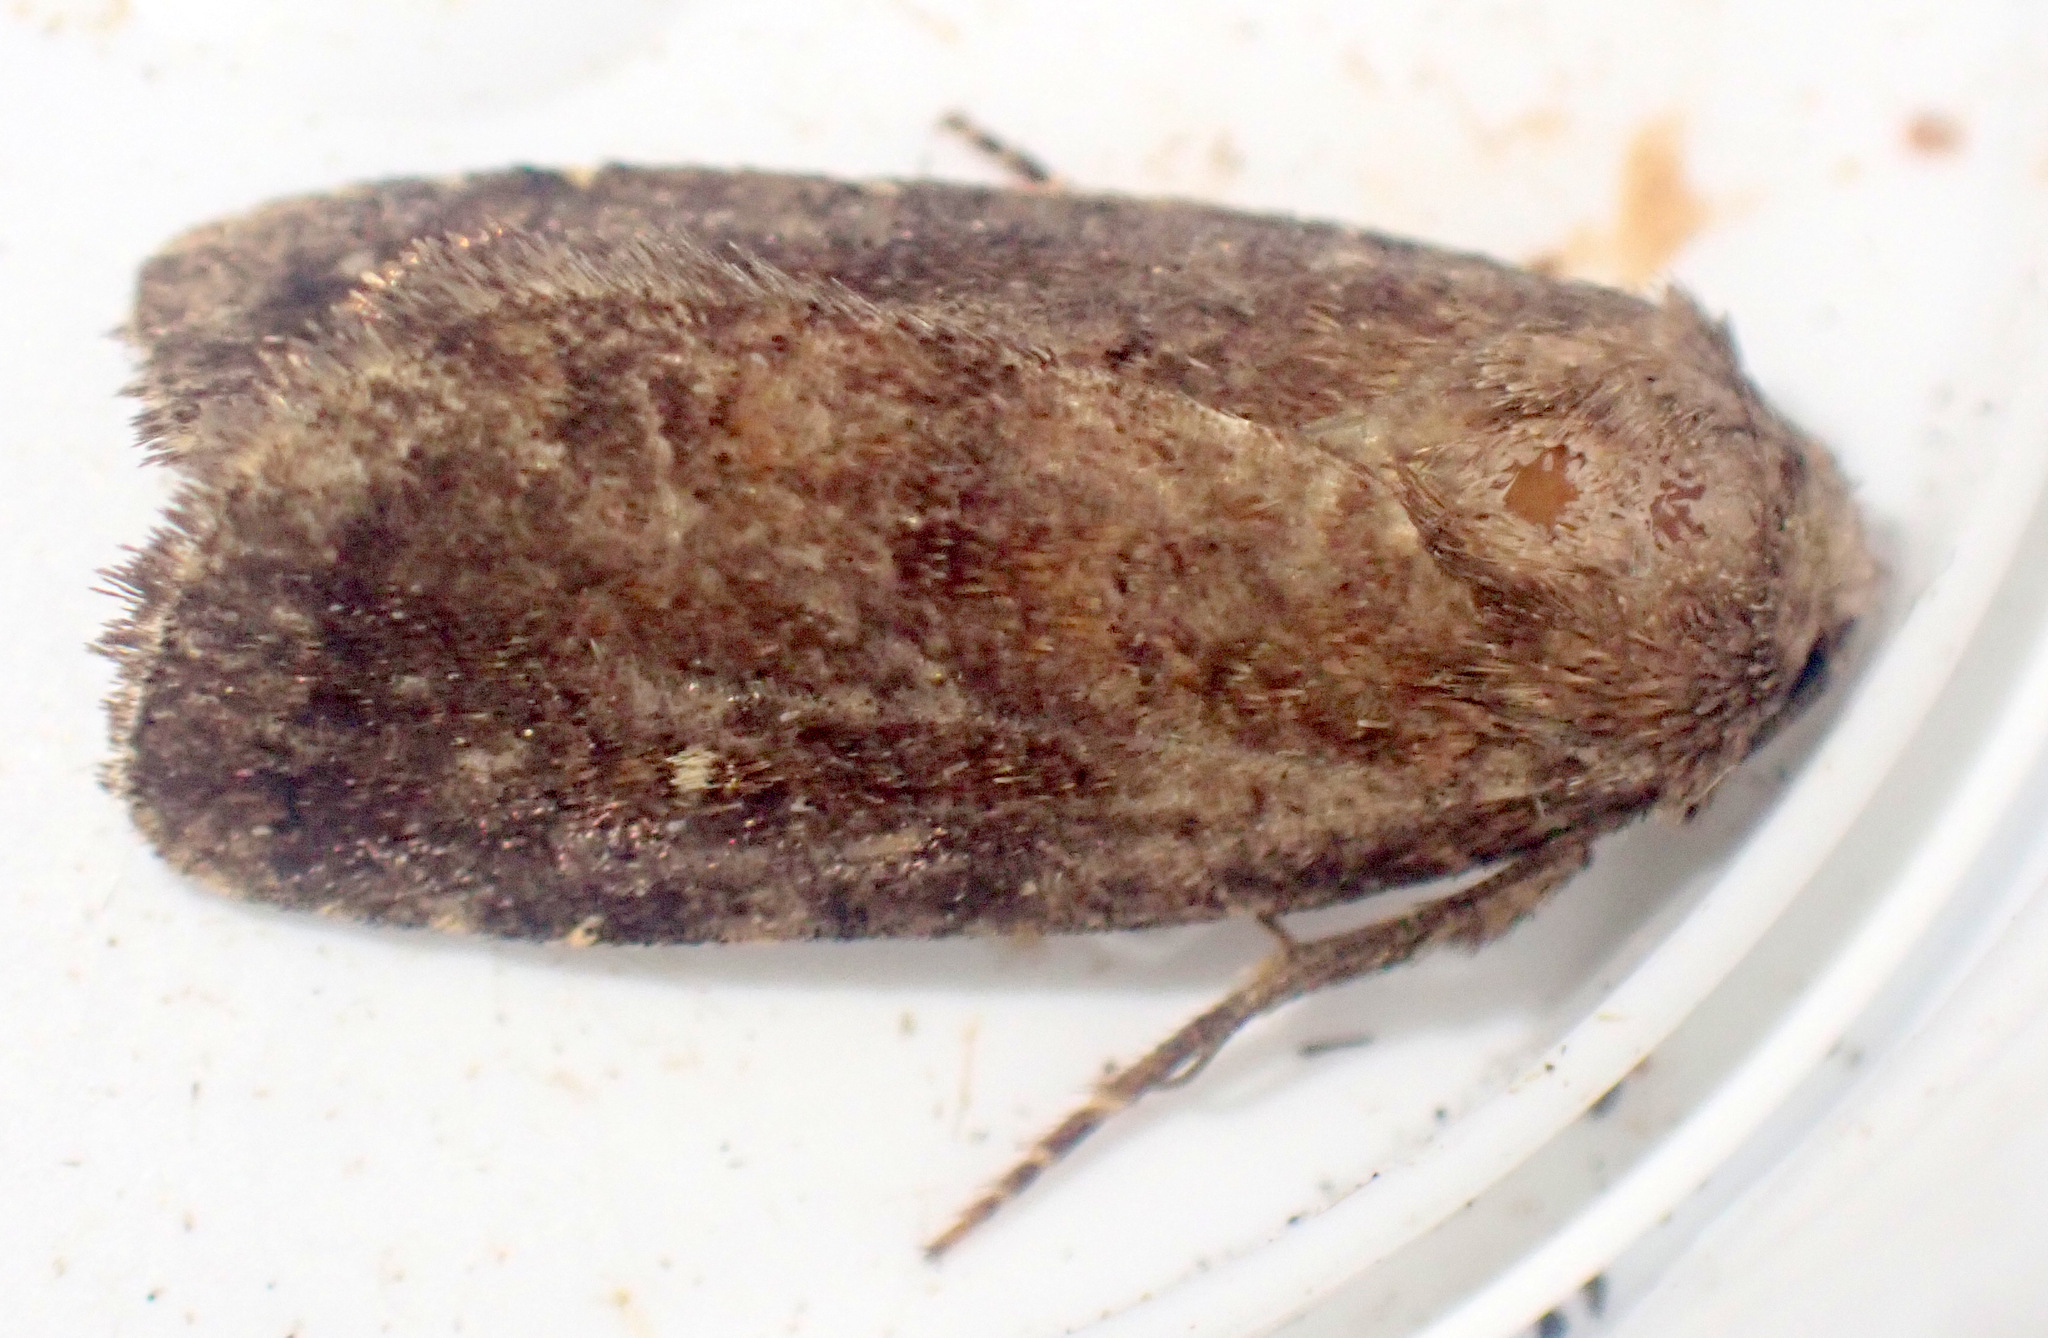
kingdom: Animalia
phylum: Arthropoda
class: Insecta
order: Lepidoptera
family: Noctuidae
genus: Charanyca
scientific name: Charanyca ferruginea
